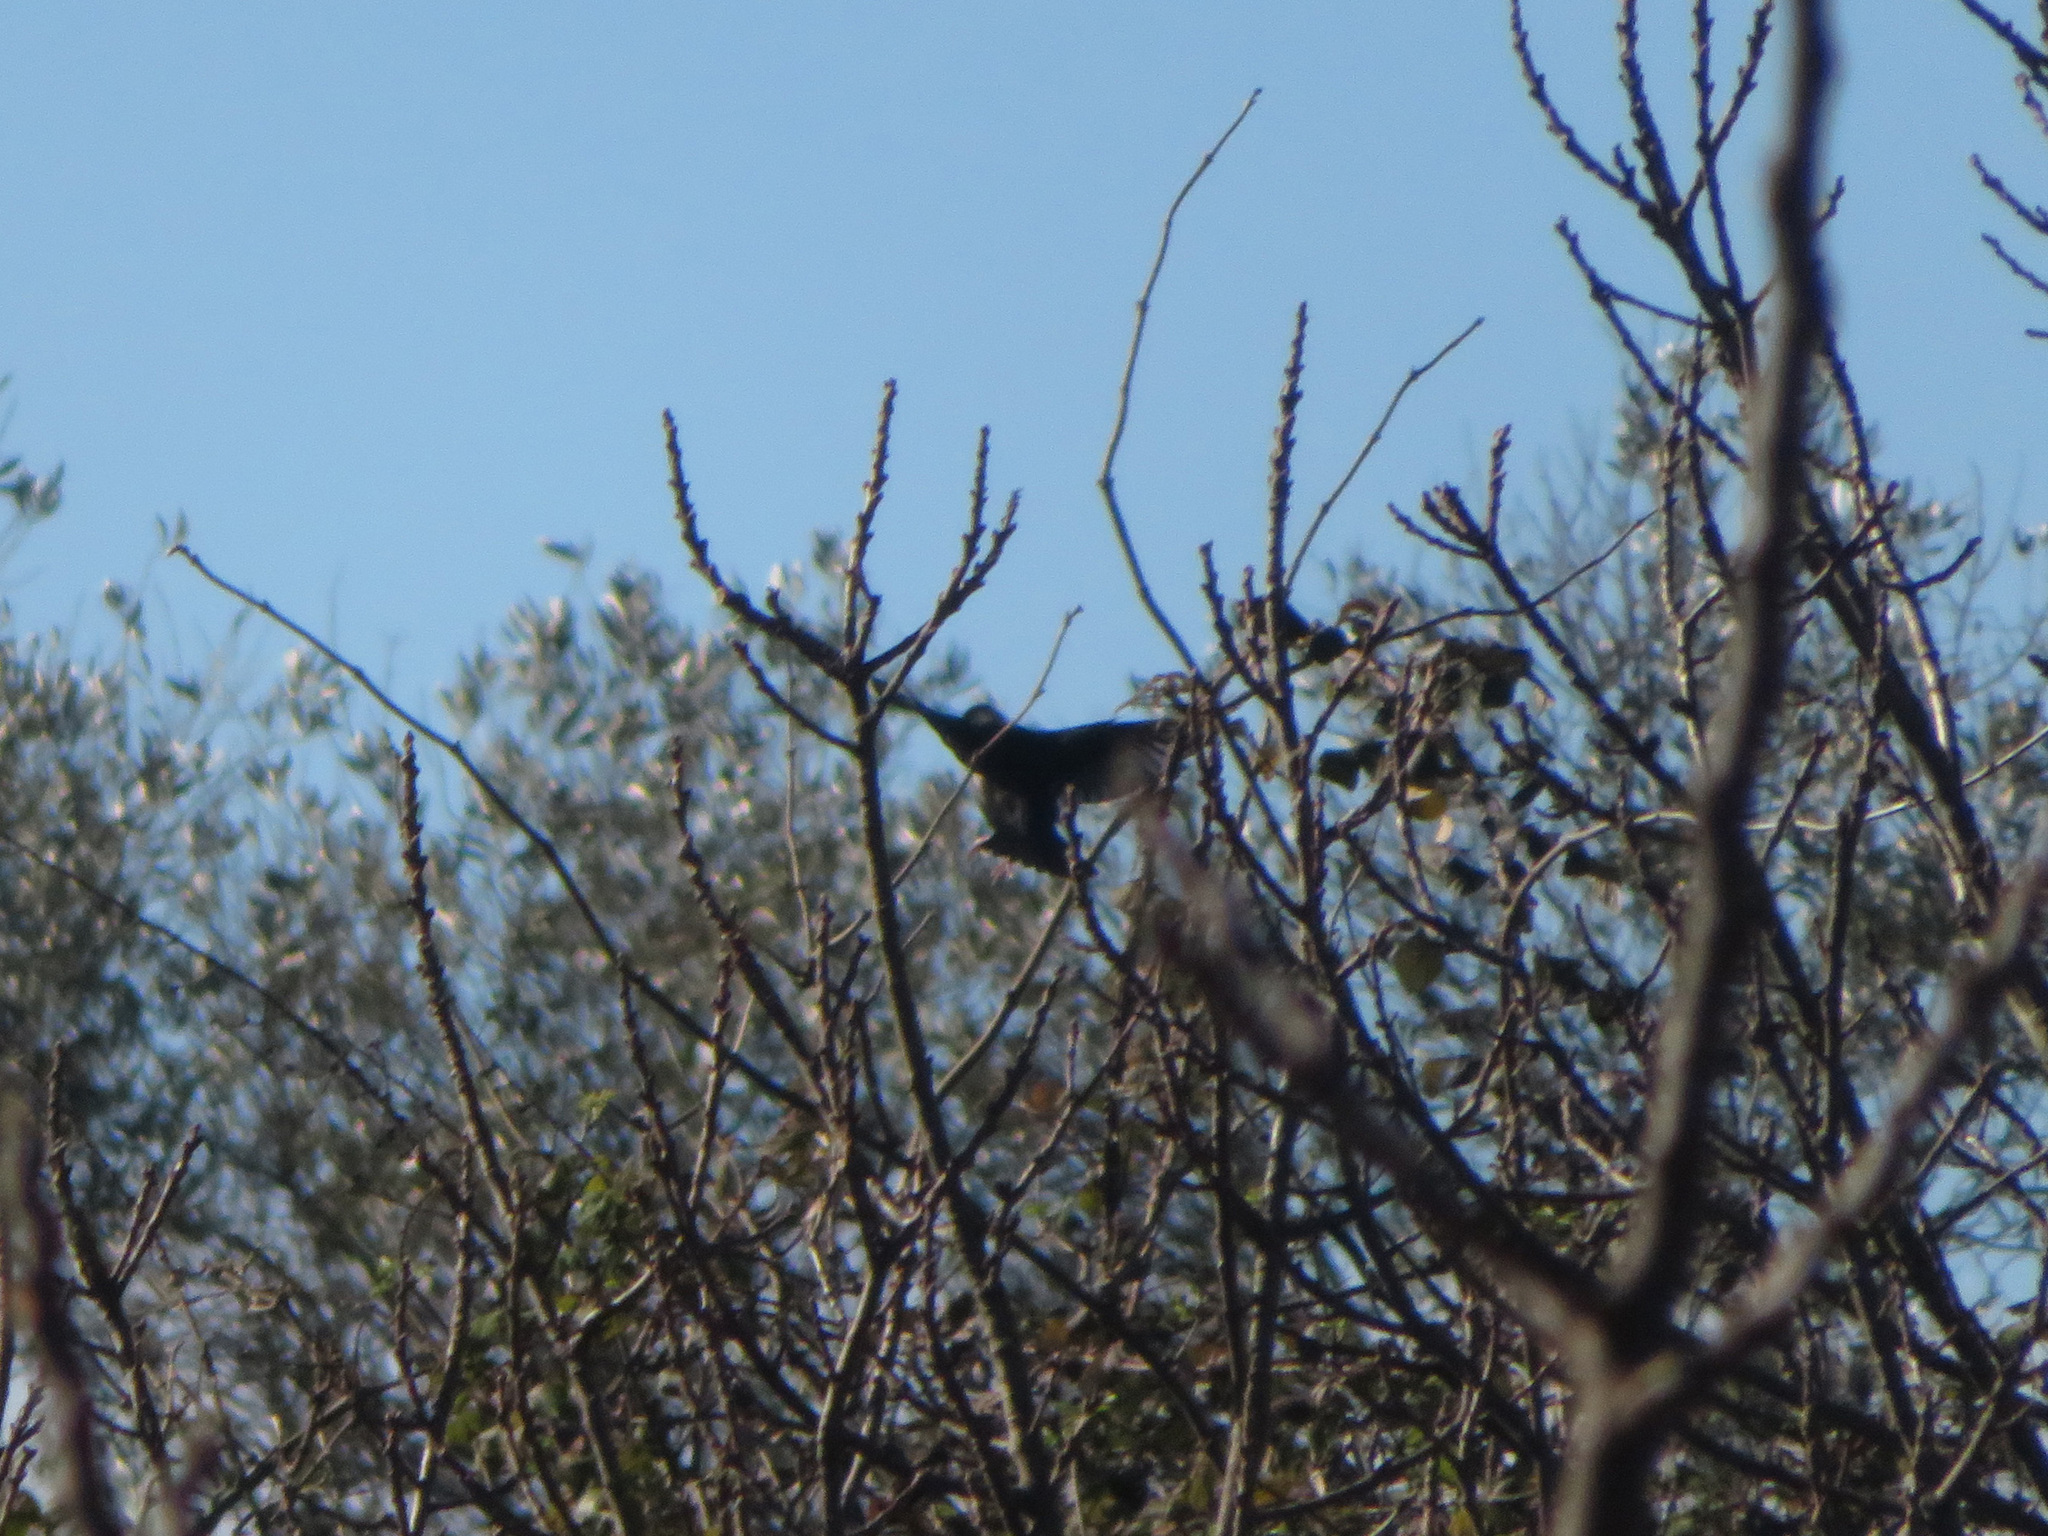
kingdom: Animalia
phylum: Chordata
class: Aves
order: Passeriformes
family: Sturnidae
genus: Sturnus
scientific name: Sturnus unicolor
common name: Spotless starling
